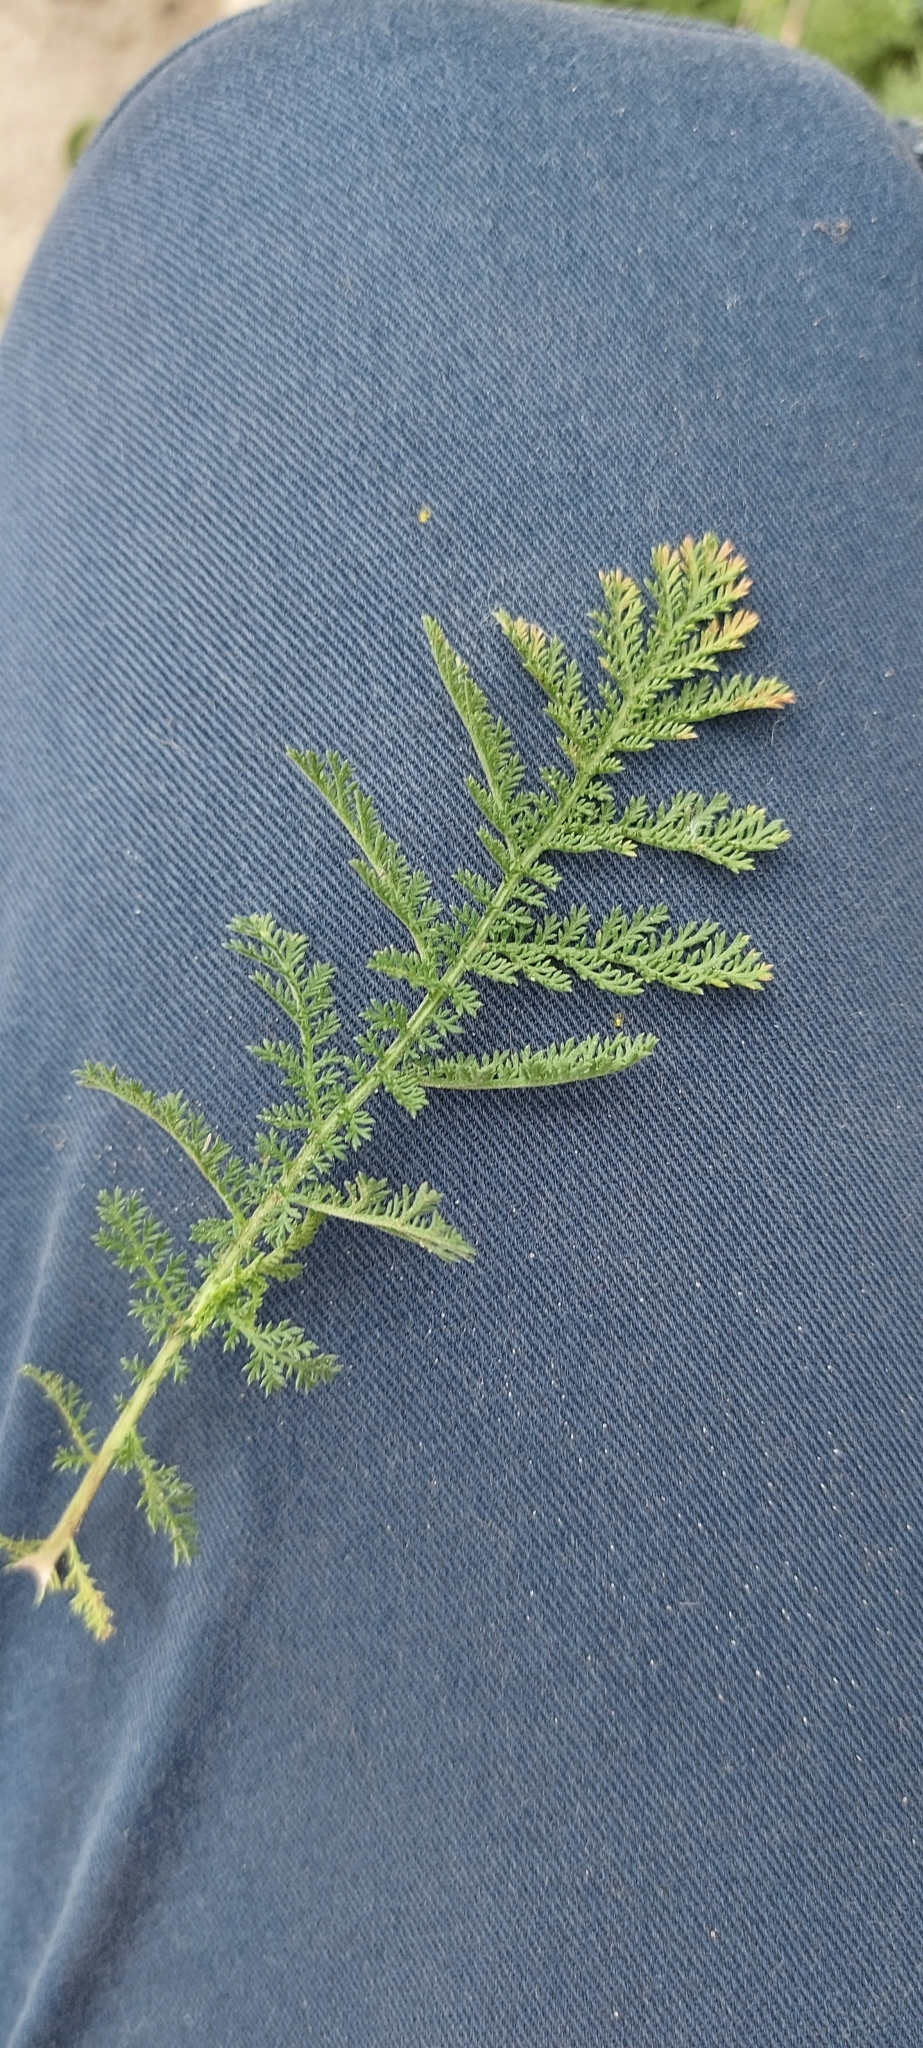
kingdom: Plantae
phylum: Tracheophyta
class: Magnoliopsida
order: Asterales
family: Asteraceae
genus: Achillea
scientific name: Achillea nobilis
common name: Noble yarrow
